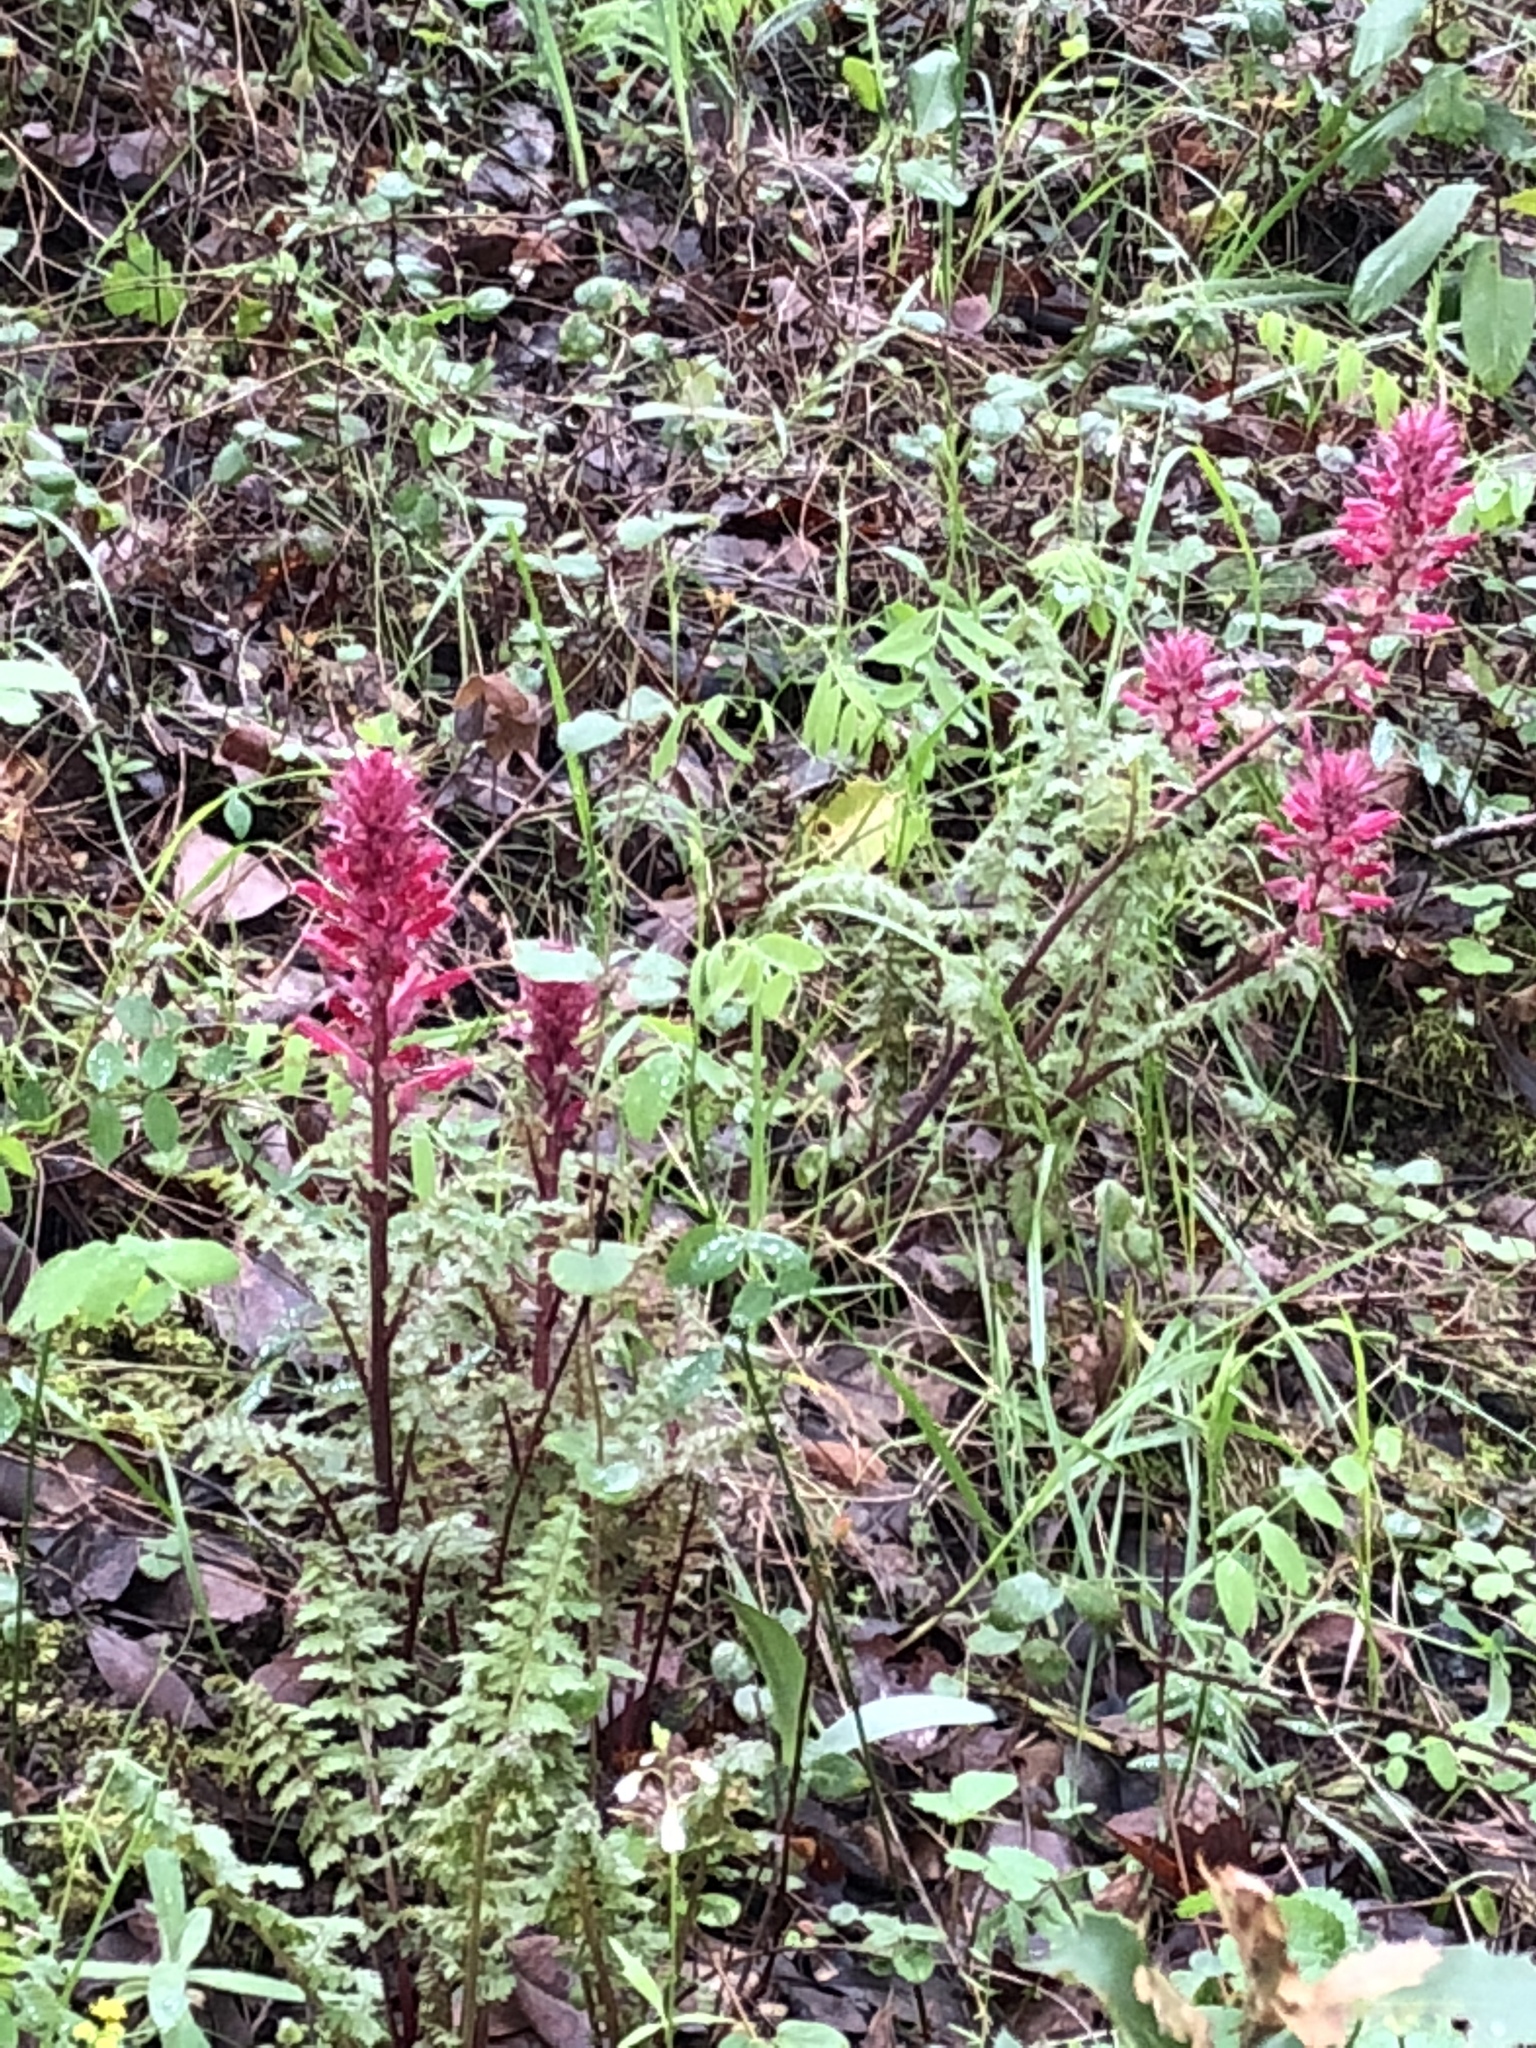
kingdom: Plantae
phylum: Tracheophyta
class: Magnoliopsida
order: Lamiales
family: Orobanchaceae
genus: Pedicularis
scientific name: Pedicularis densiflora
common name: Indian warrior
